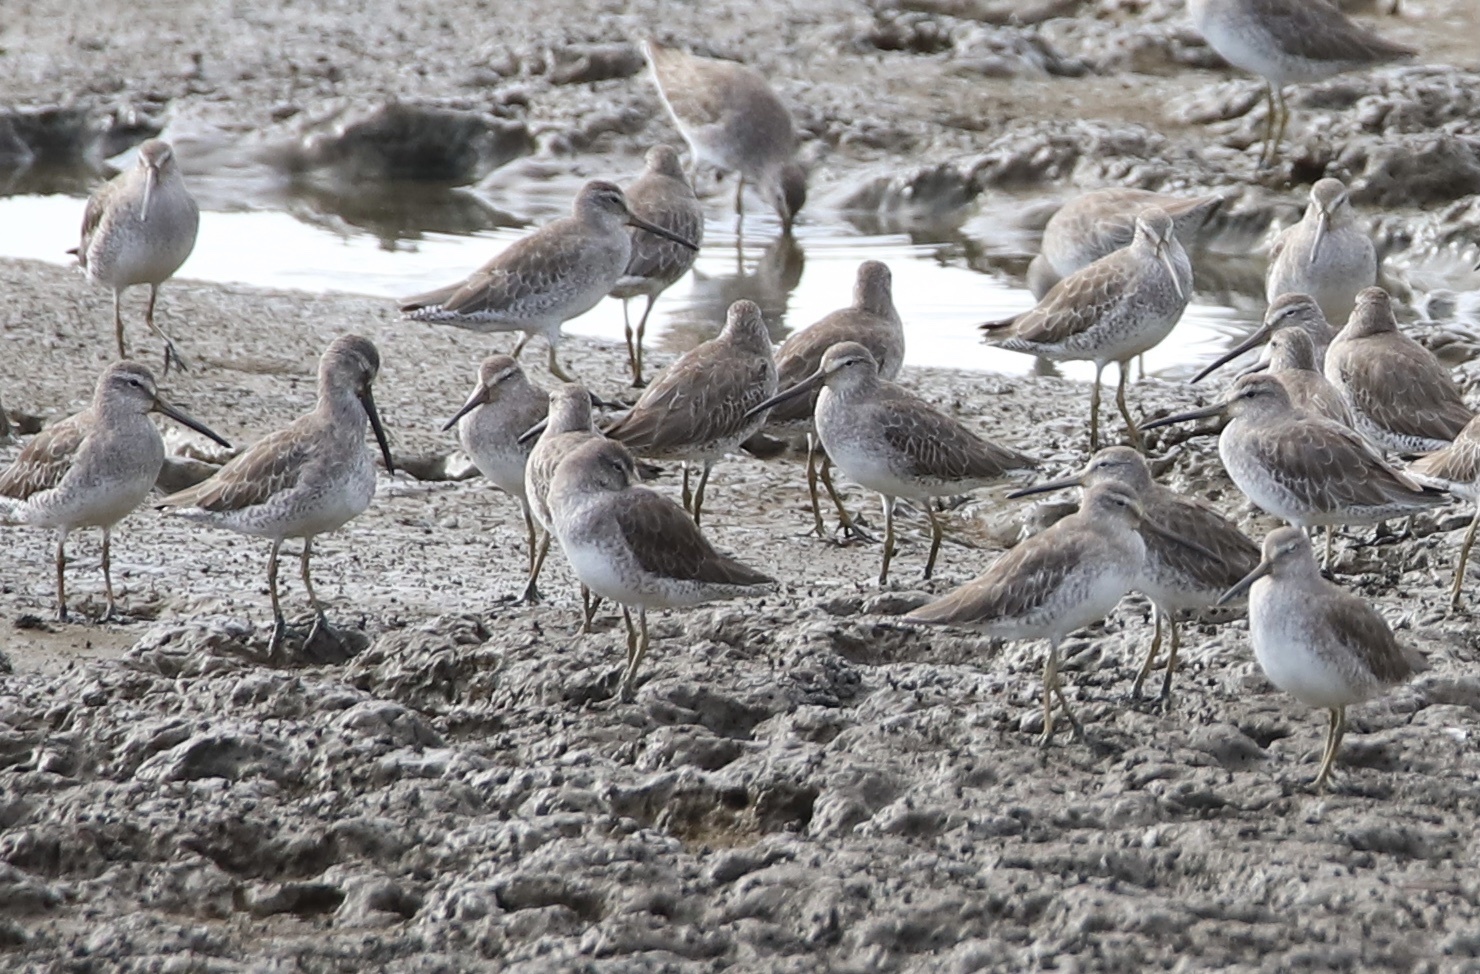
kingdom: Animalia
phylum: Chordata
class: Aves
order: Charadriiformes
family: Scolopacidae
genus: Limnodromus
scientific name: Limnodromus griseus
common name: Short-billed dowitcher
